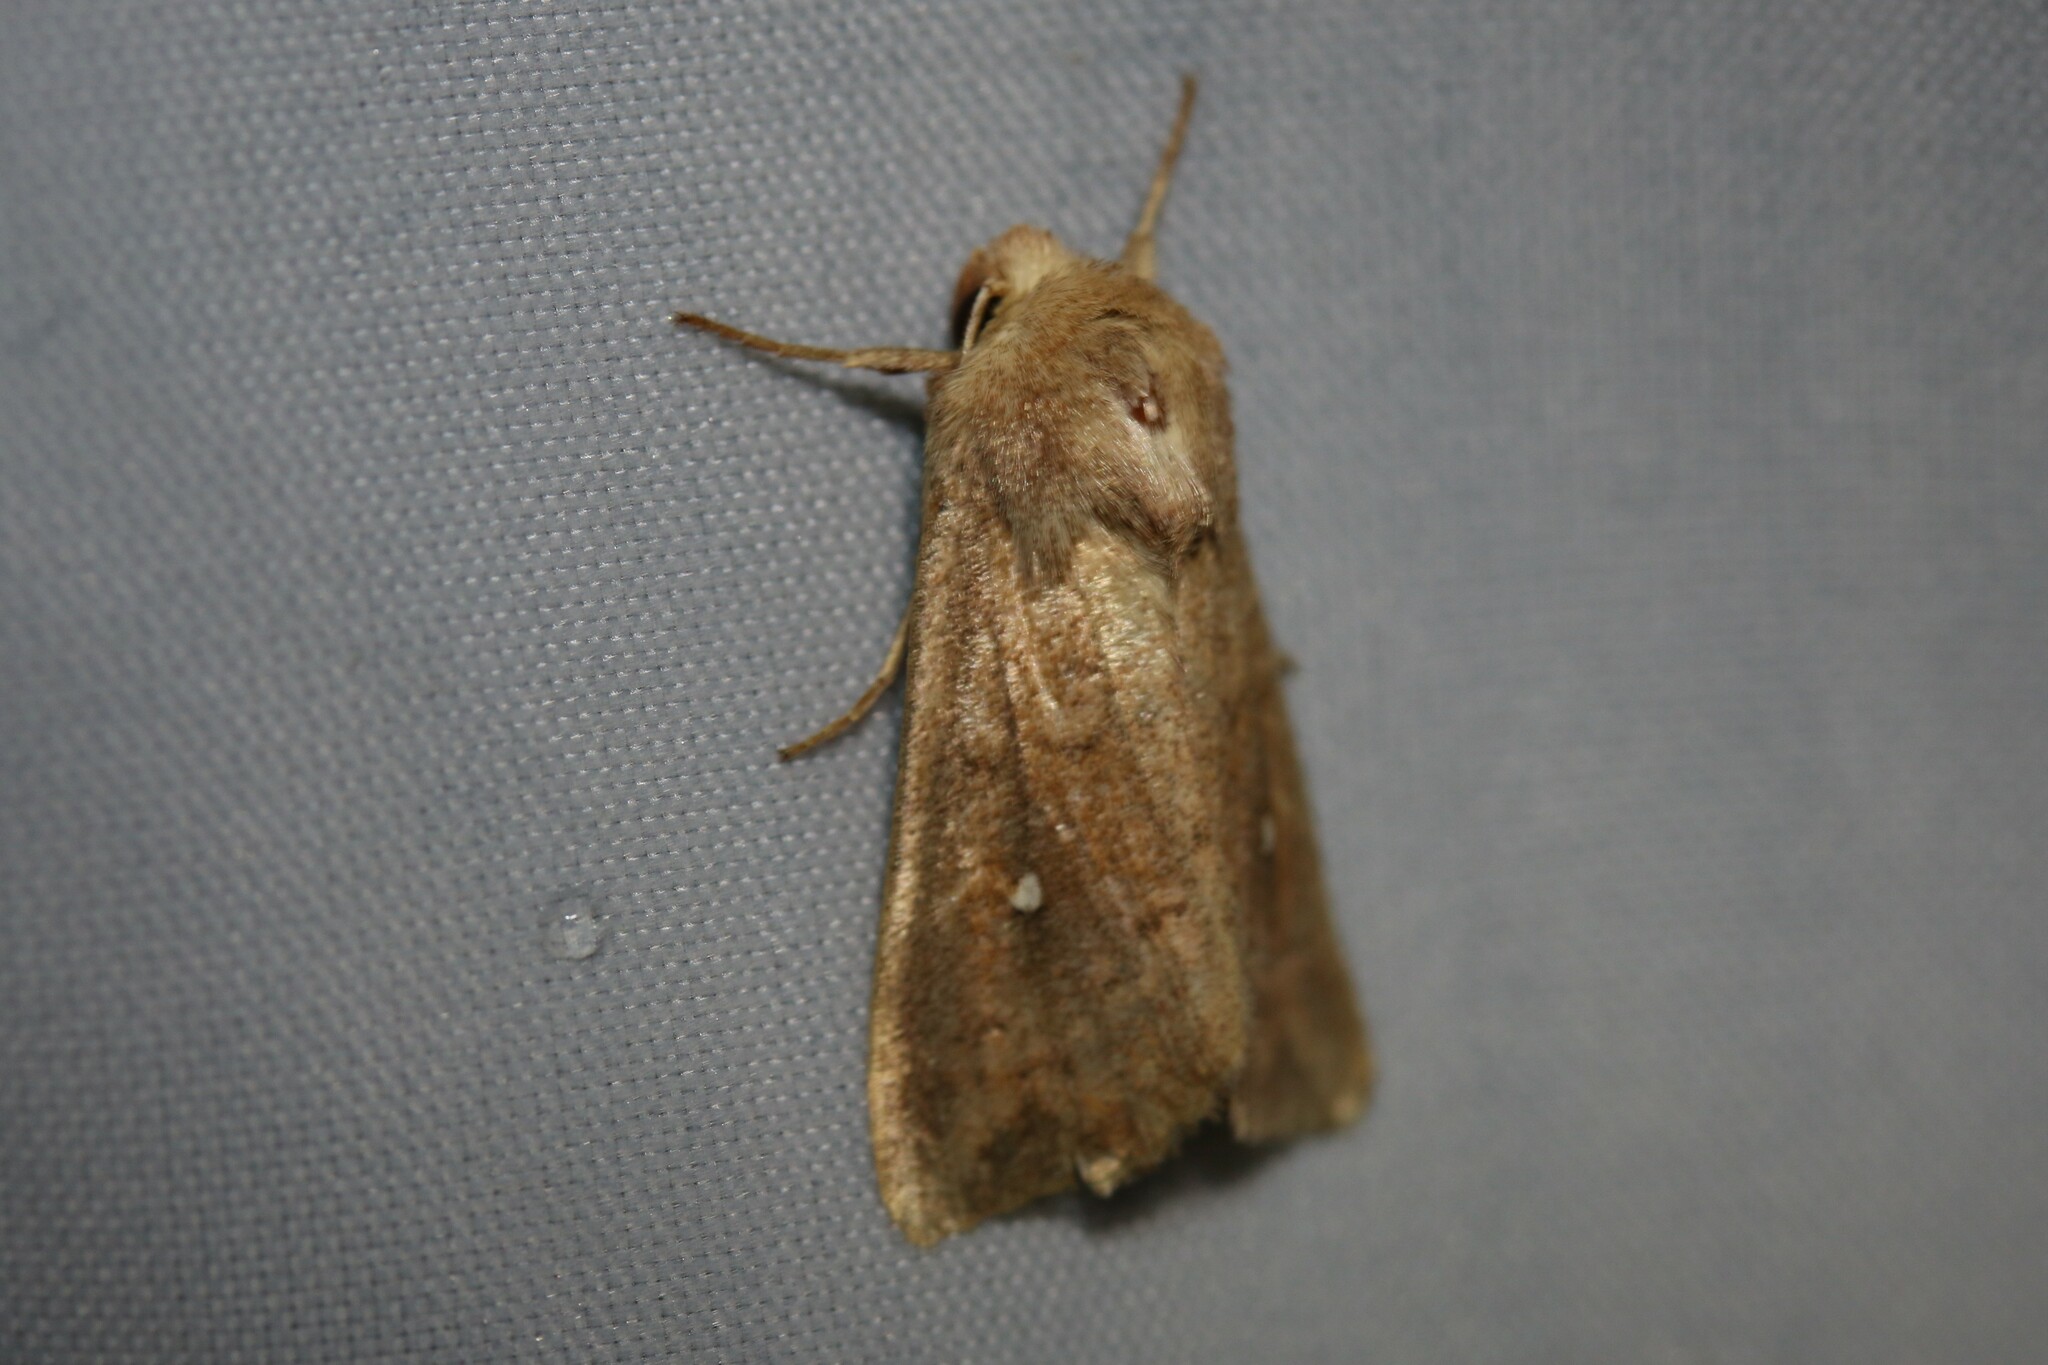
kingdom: Animalia
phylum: Arthropoda
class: Insecta
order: Lepidoptera
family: Noctuidae
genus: Mythimna
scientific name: Mythimna albipuncta
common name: White-point
